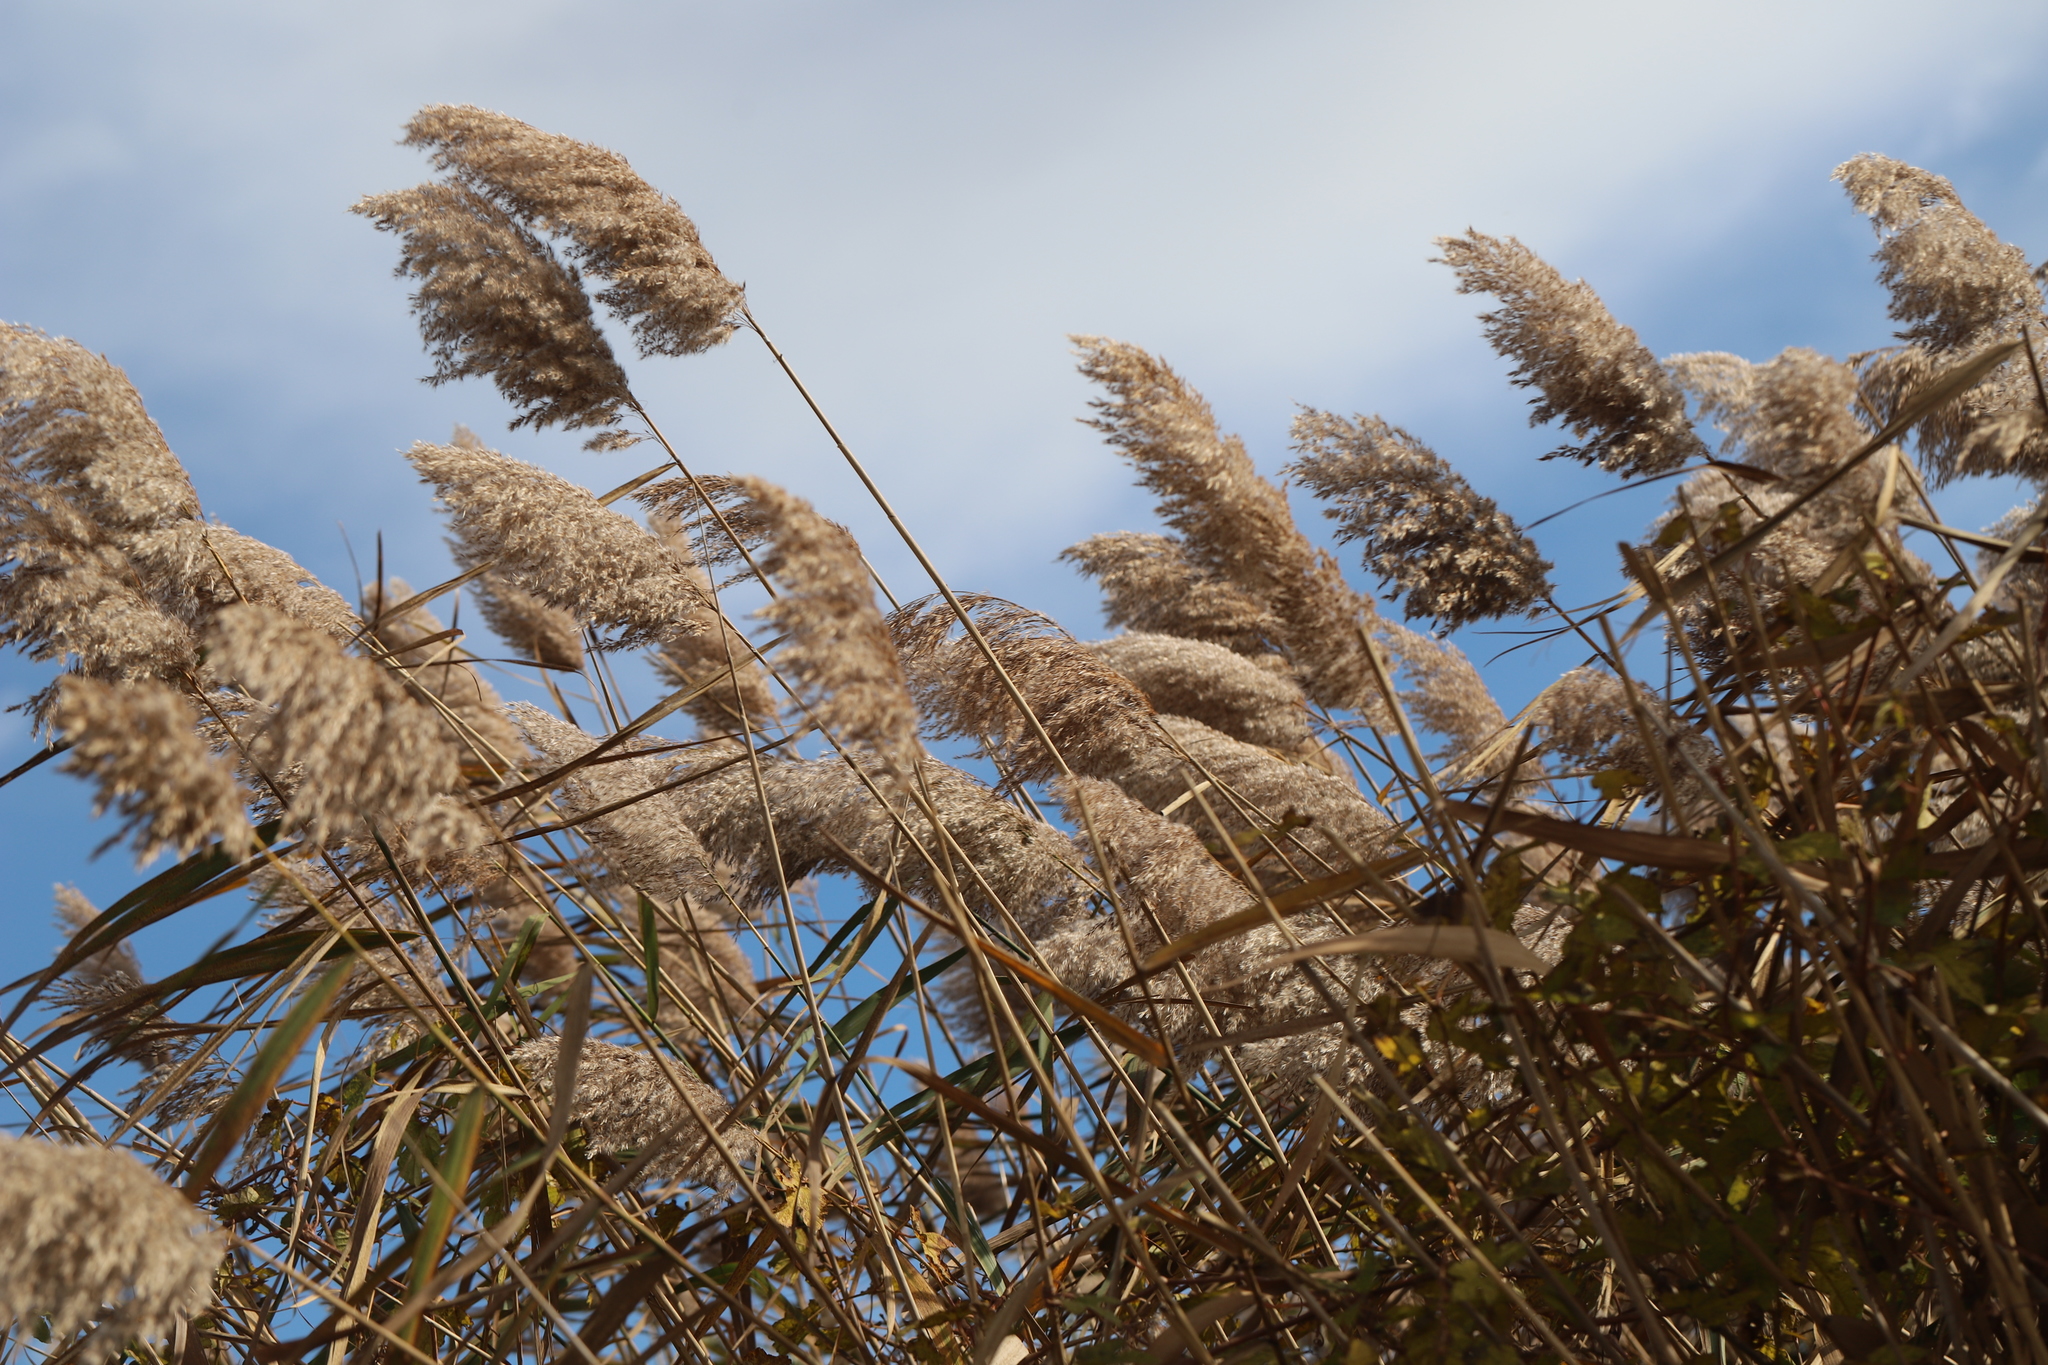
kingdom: Plantae
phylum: Tracheophyta
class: Liliopsida
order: Poales
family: Poaceae
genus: Phragmites
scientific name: Phragmites australis
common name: Common reed
